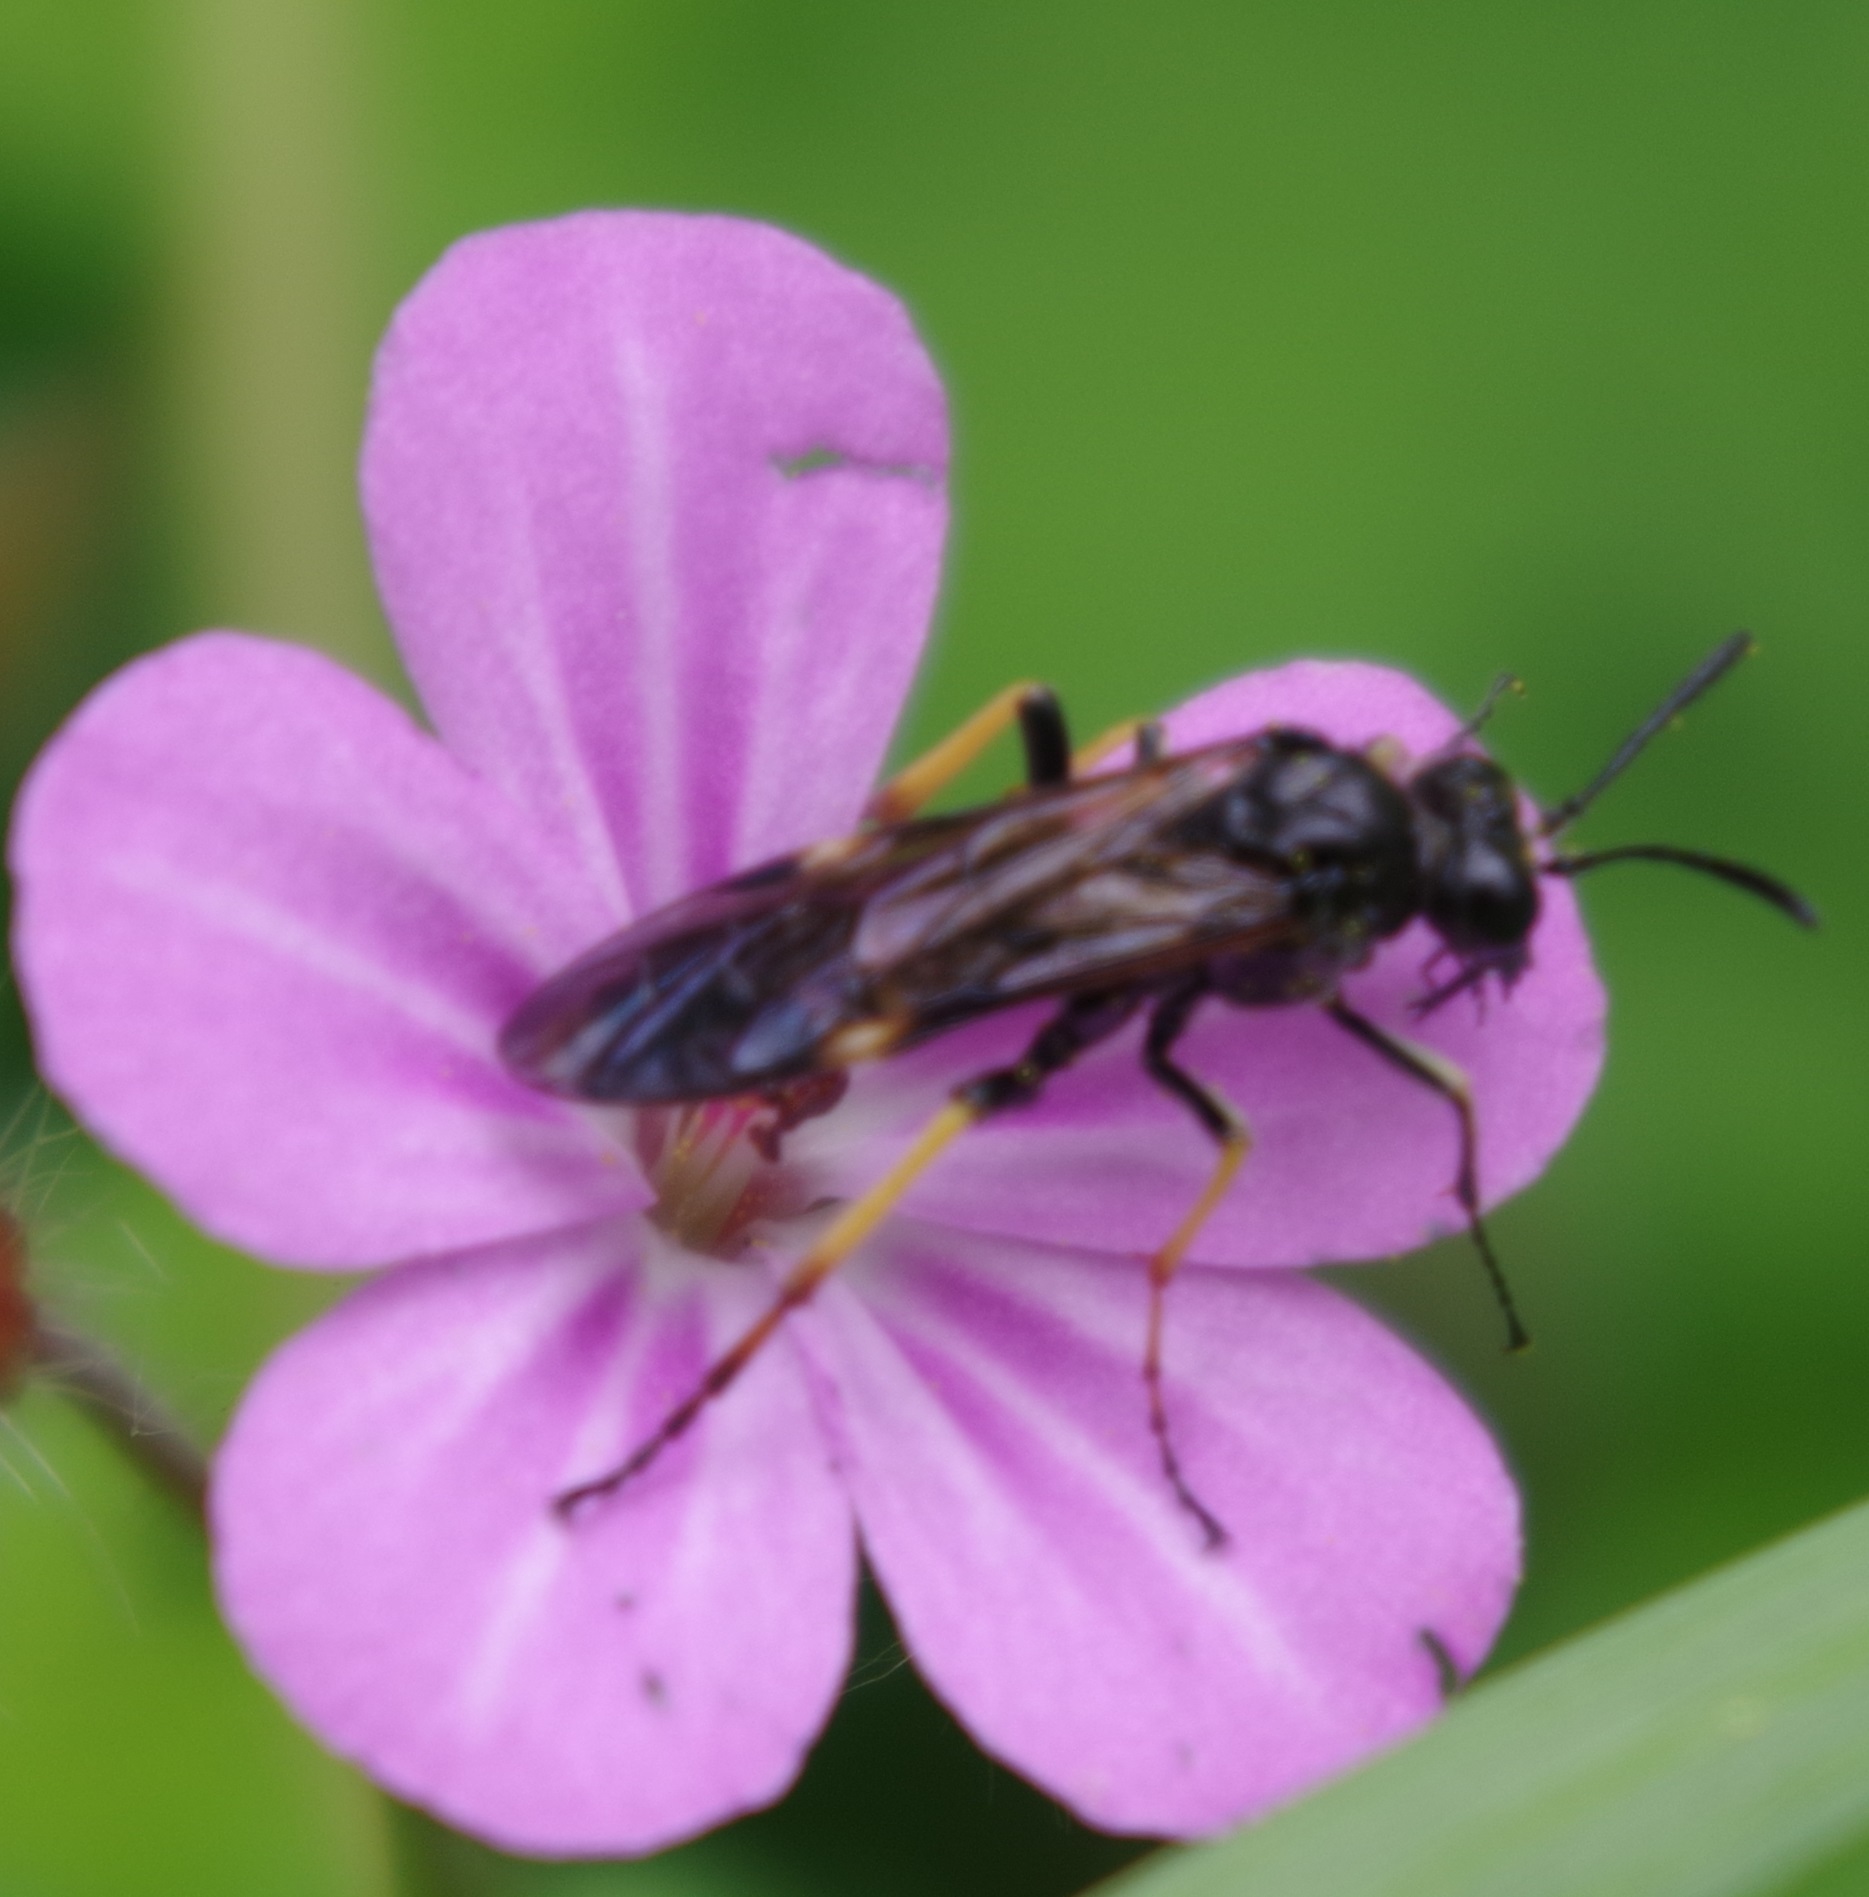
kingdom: Animalia
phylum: Arthropoda
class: Insecta
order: Hymenoptera
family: Tenthredinidae
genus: Tenthredo
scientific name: Tenthredo koehleri
